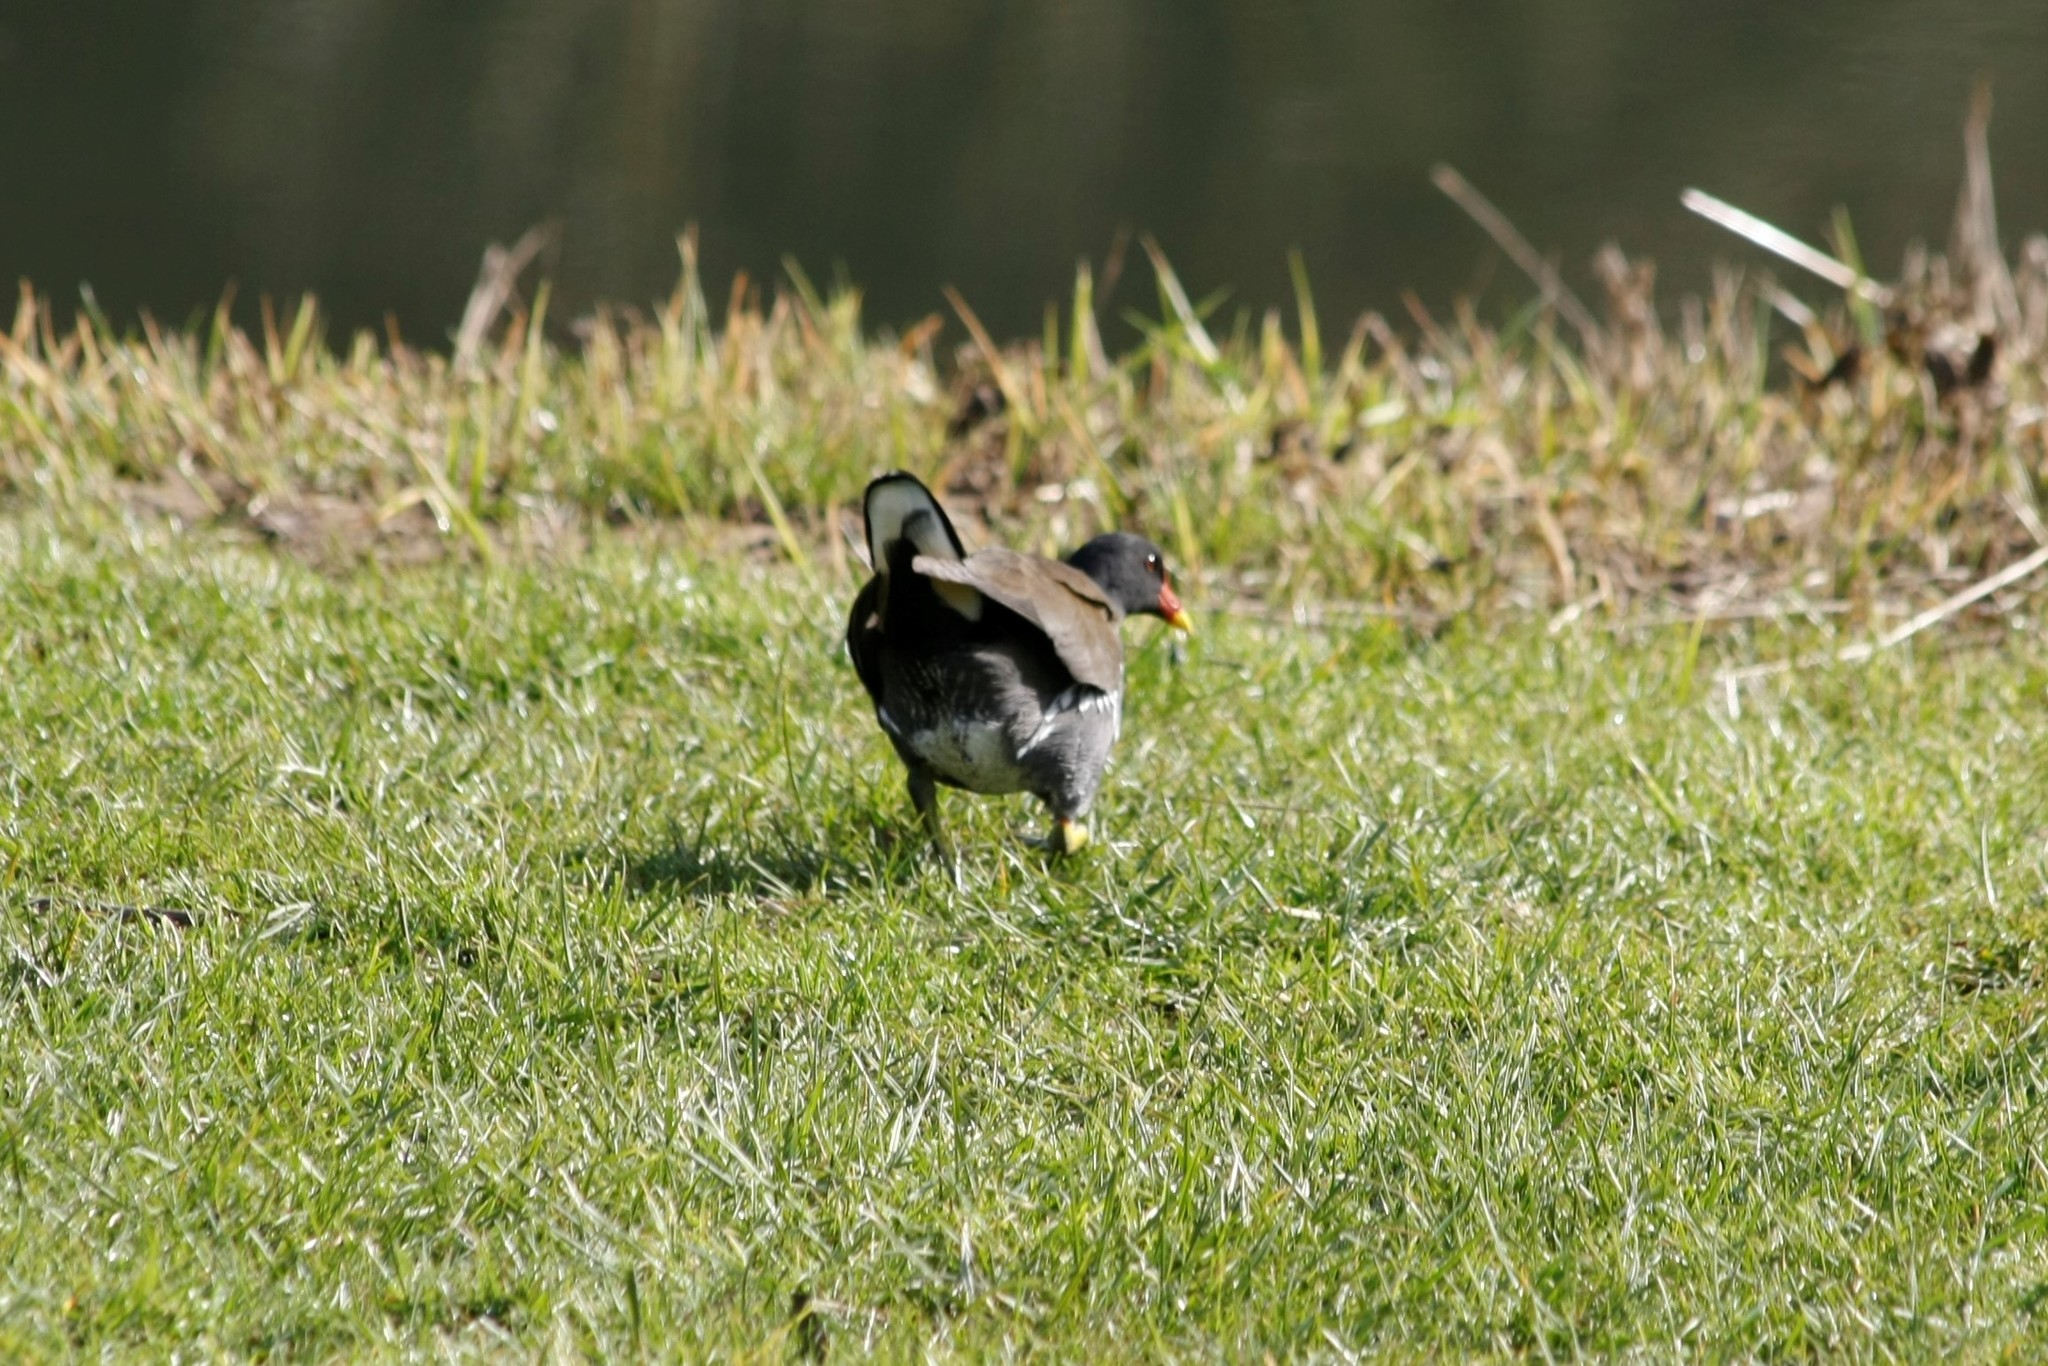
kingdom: Animalia
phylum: Chordata
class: Aves
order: Gruiformes
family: Rallidae
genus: Gallinula
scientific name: Gallinula chloropus
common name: Common moorhen
